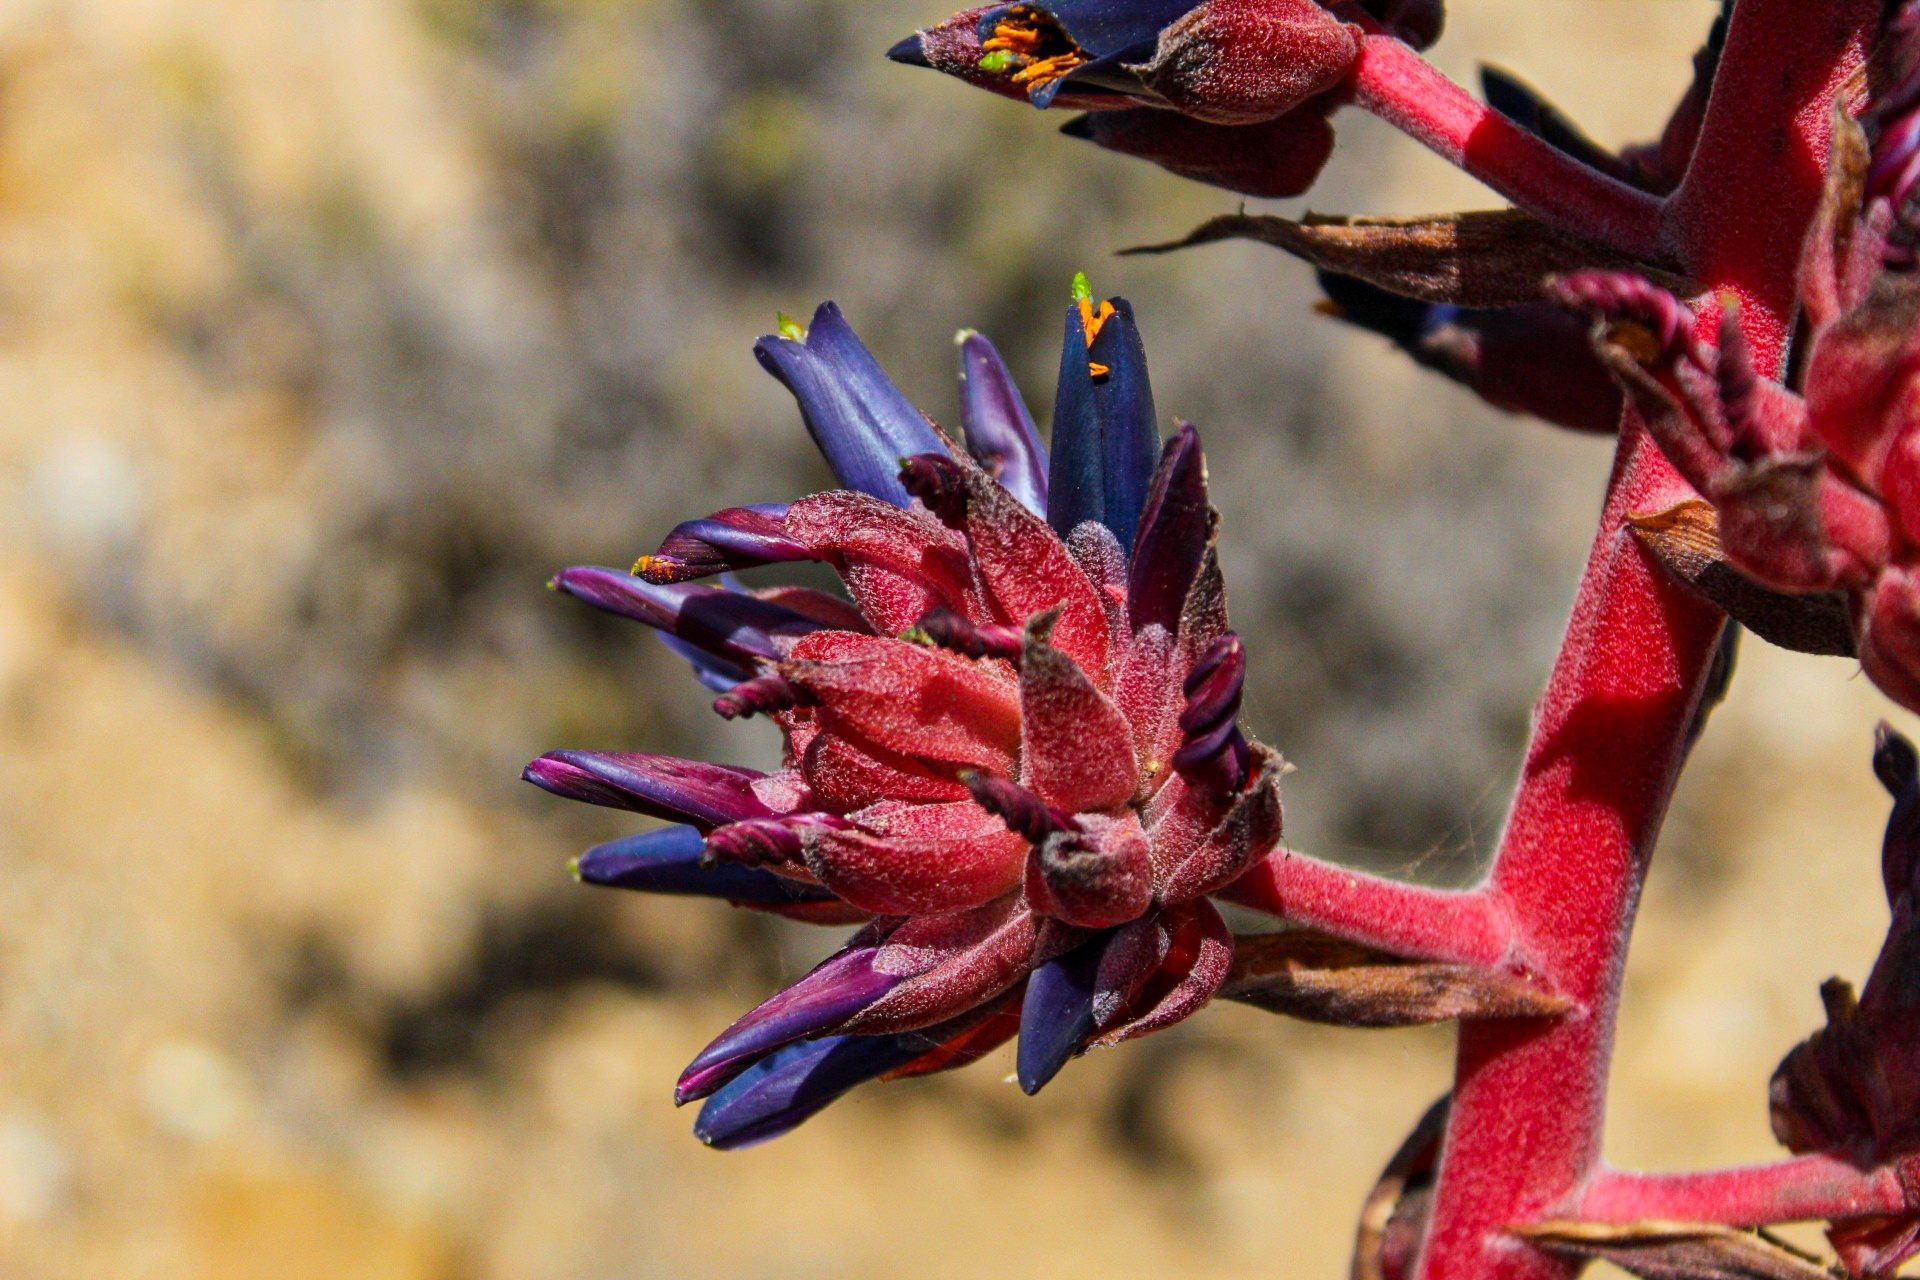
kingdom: Plantae
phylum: Tracheophyta
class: Liliopsida
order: Poales
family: Bromeliaceae
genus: Puya
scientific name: Puya venusta
